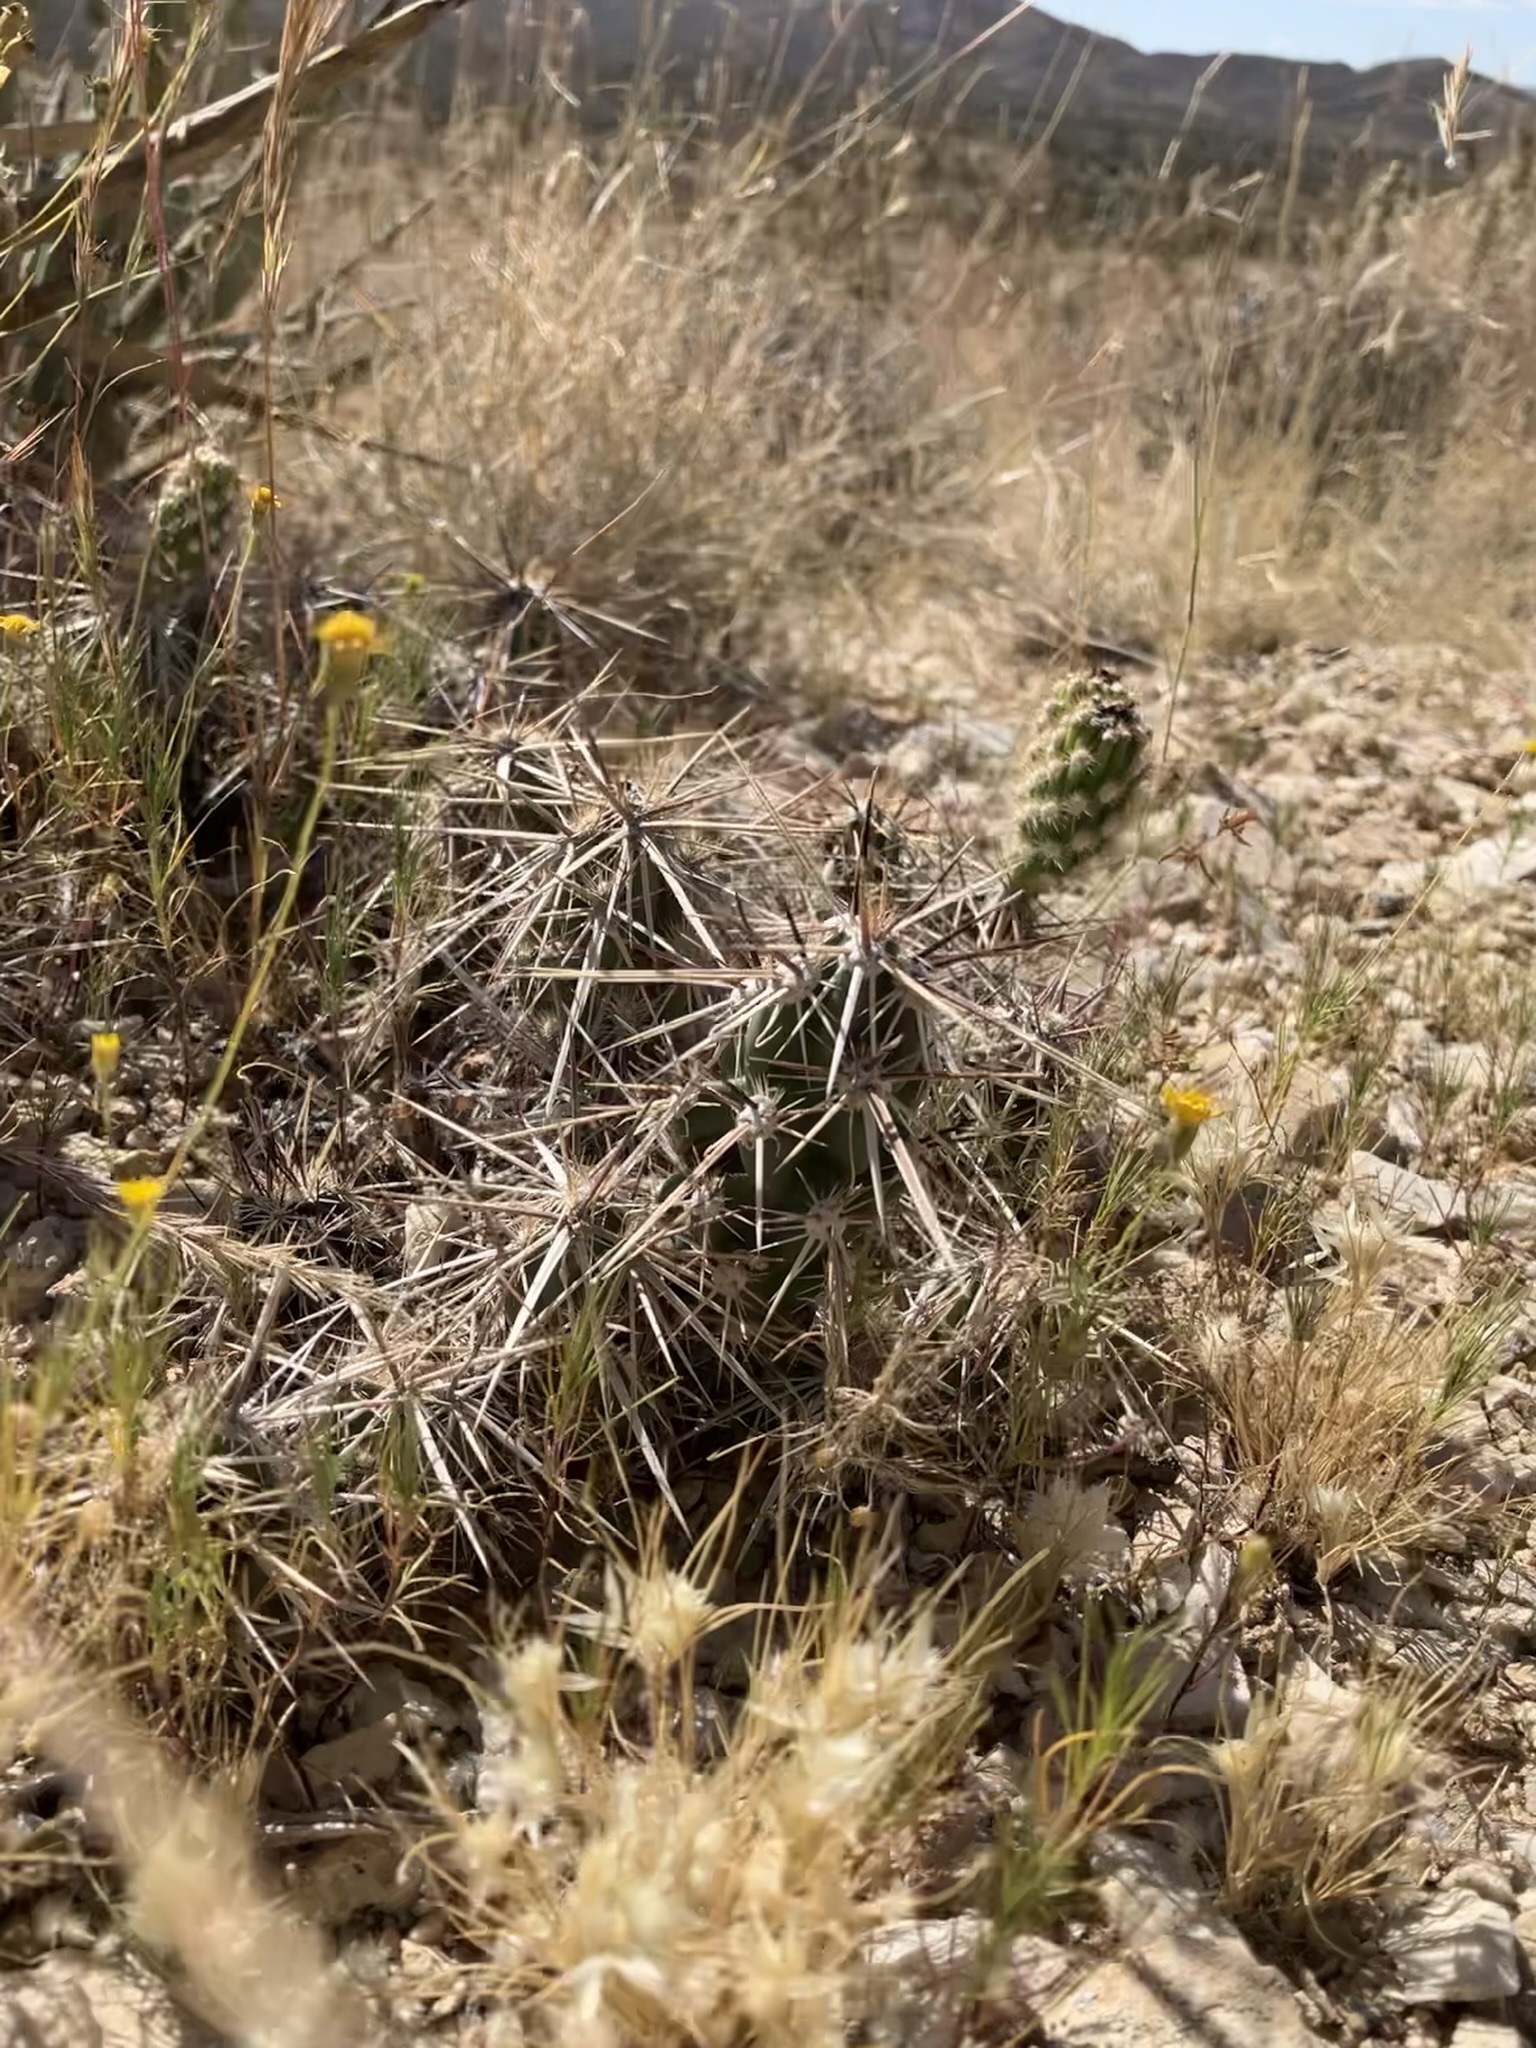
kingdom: Plantae
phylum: Tracheophyta
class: Magnoliopsida
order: Caryophyllales
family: Cactaceae
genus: Grusonia
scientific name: Grusonia parishiorum
